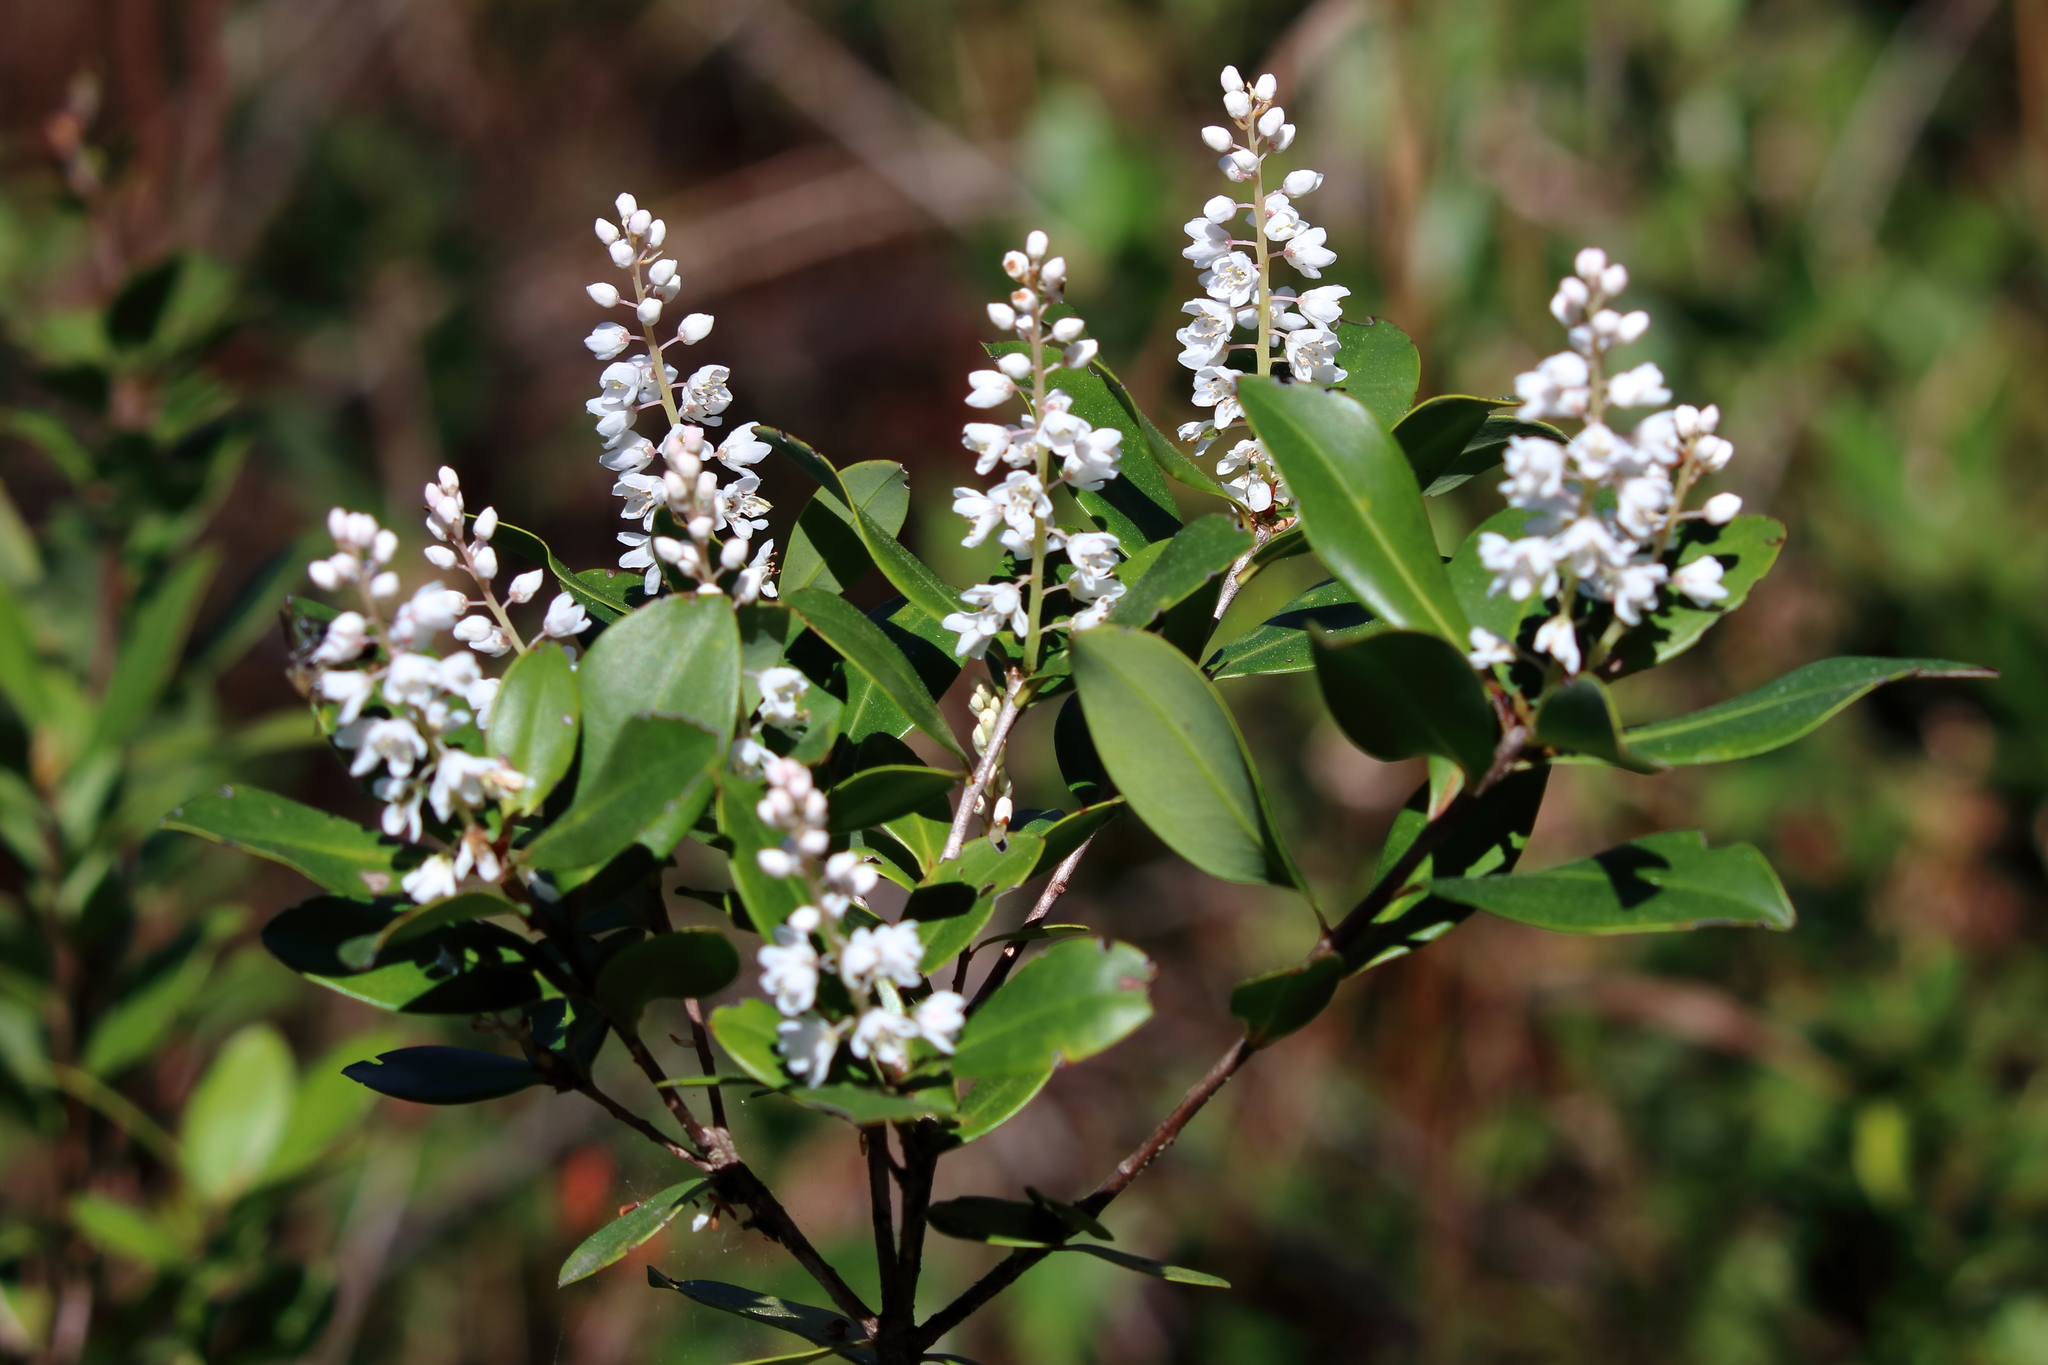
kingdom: Plantae
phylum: Tracheophyta
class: Magnoliopsida
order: Ericales
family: Cyrillaceae
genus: Cliftonia
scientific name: Cliftonia monophylla
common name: Titi
